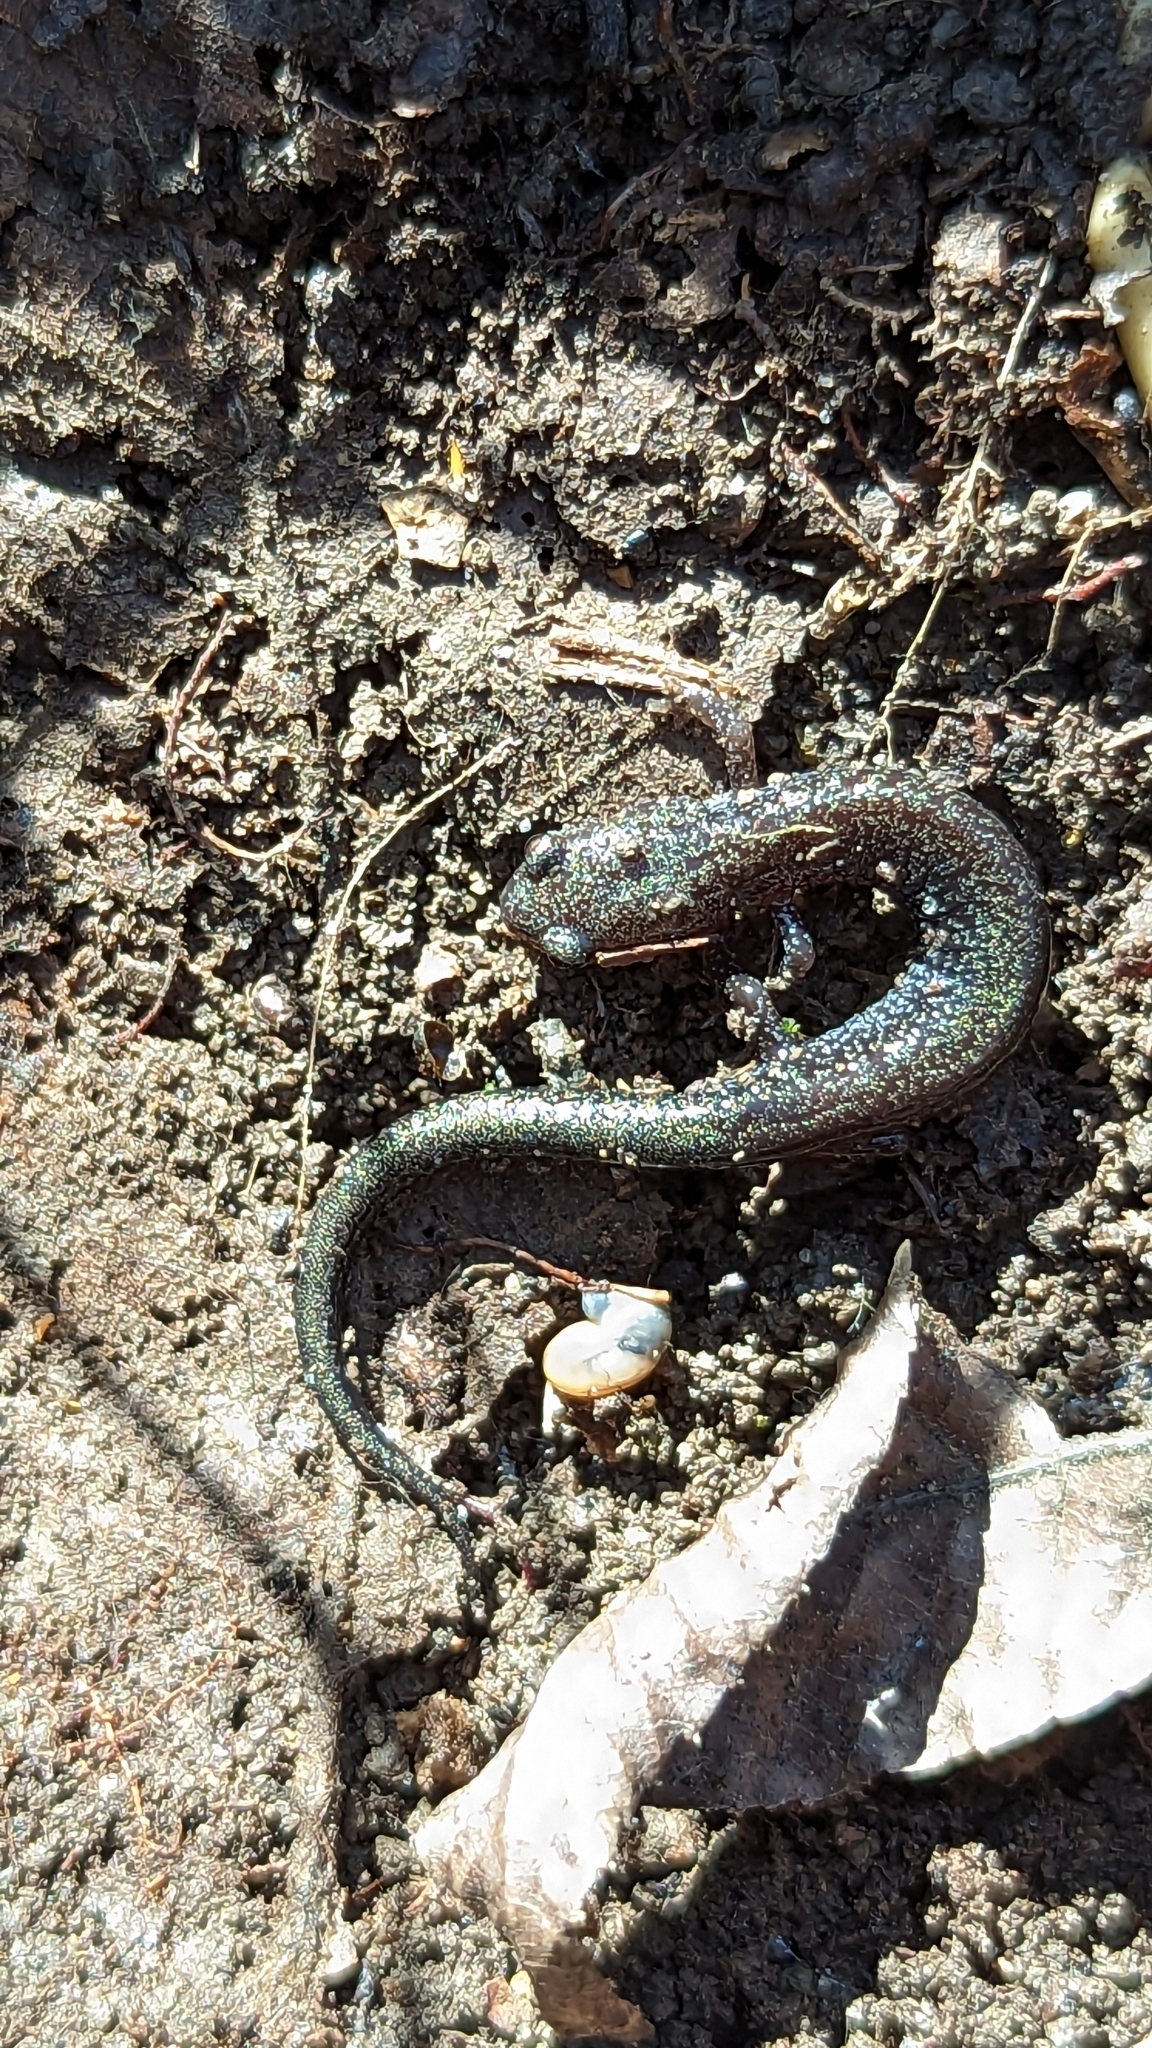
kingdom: Animalia
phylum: Chordata
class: Amphibia
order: Caudata
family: Plethodontidae
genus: Plethodon
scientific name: Plethodon cinereus
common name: Redback salamander
